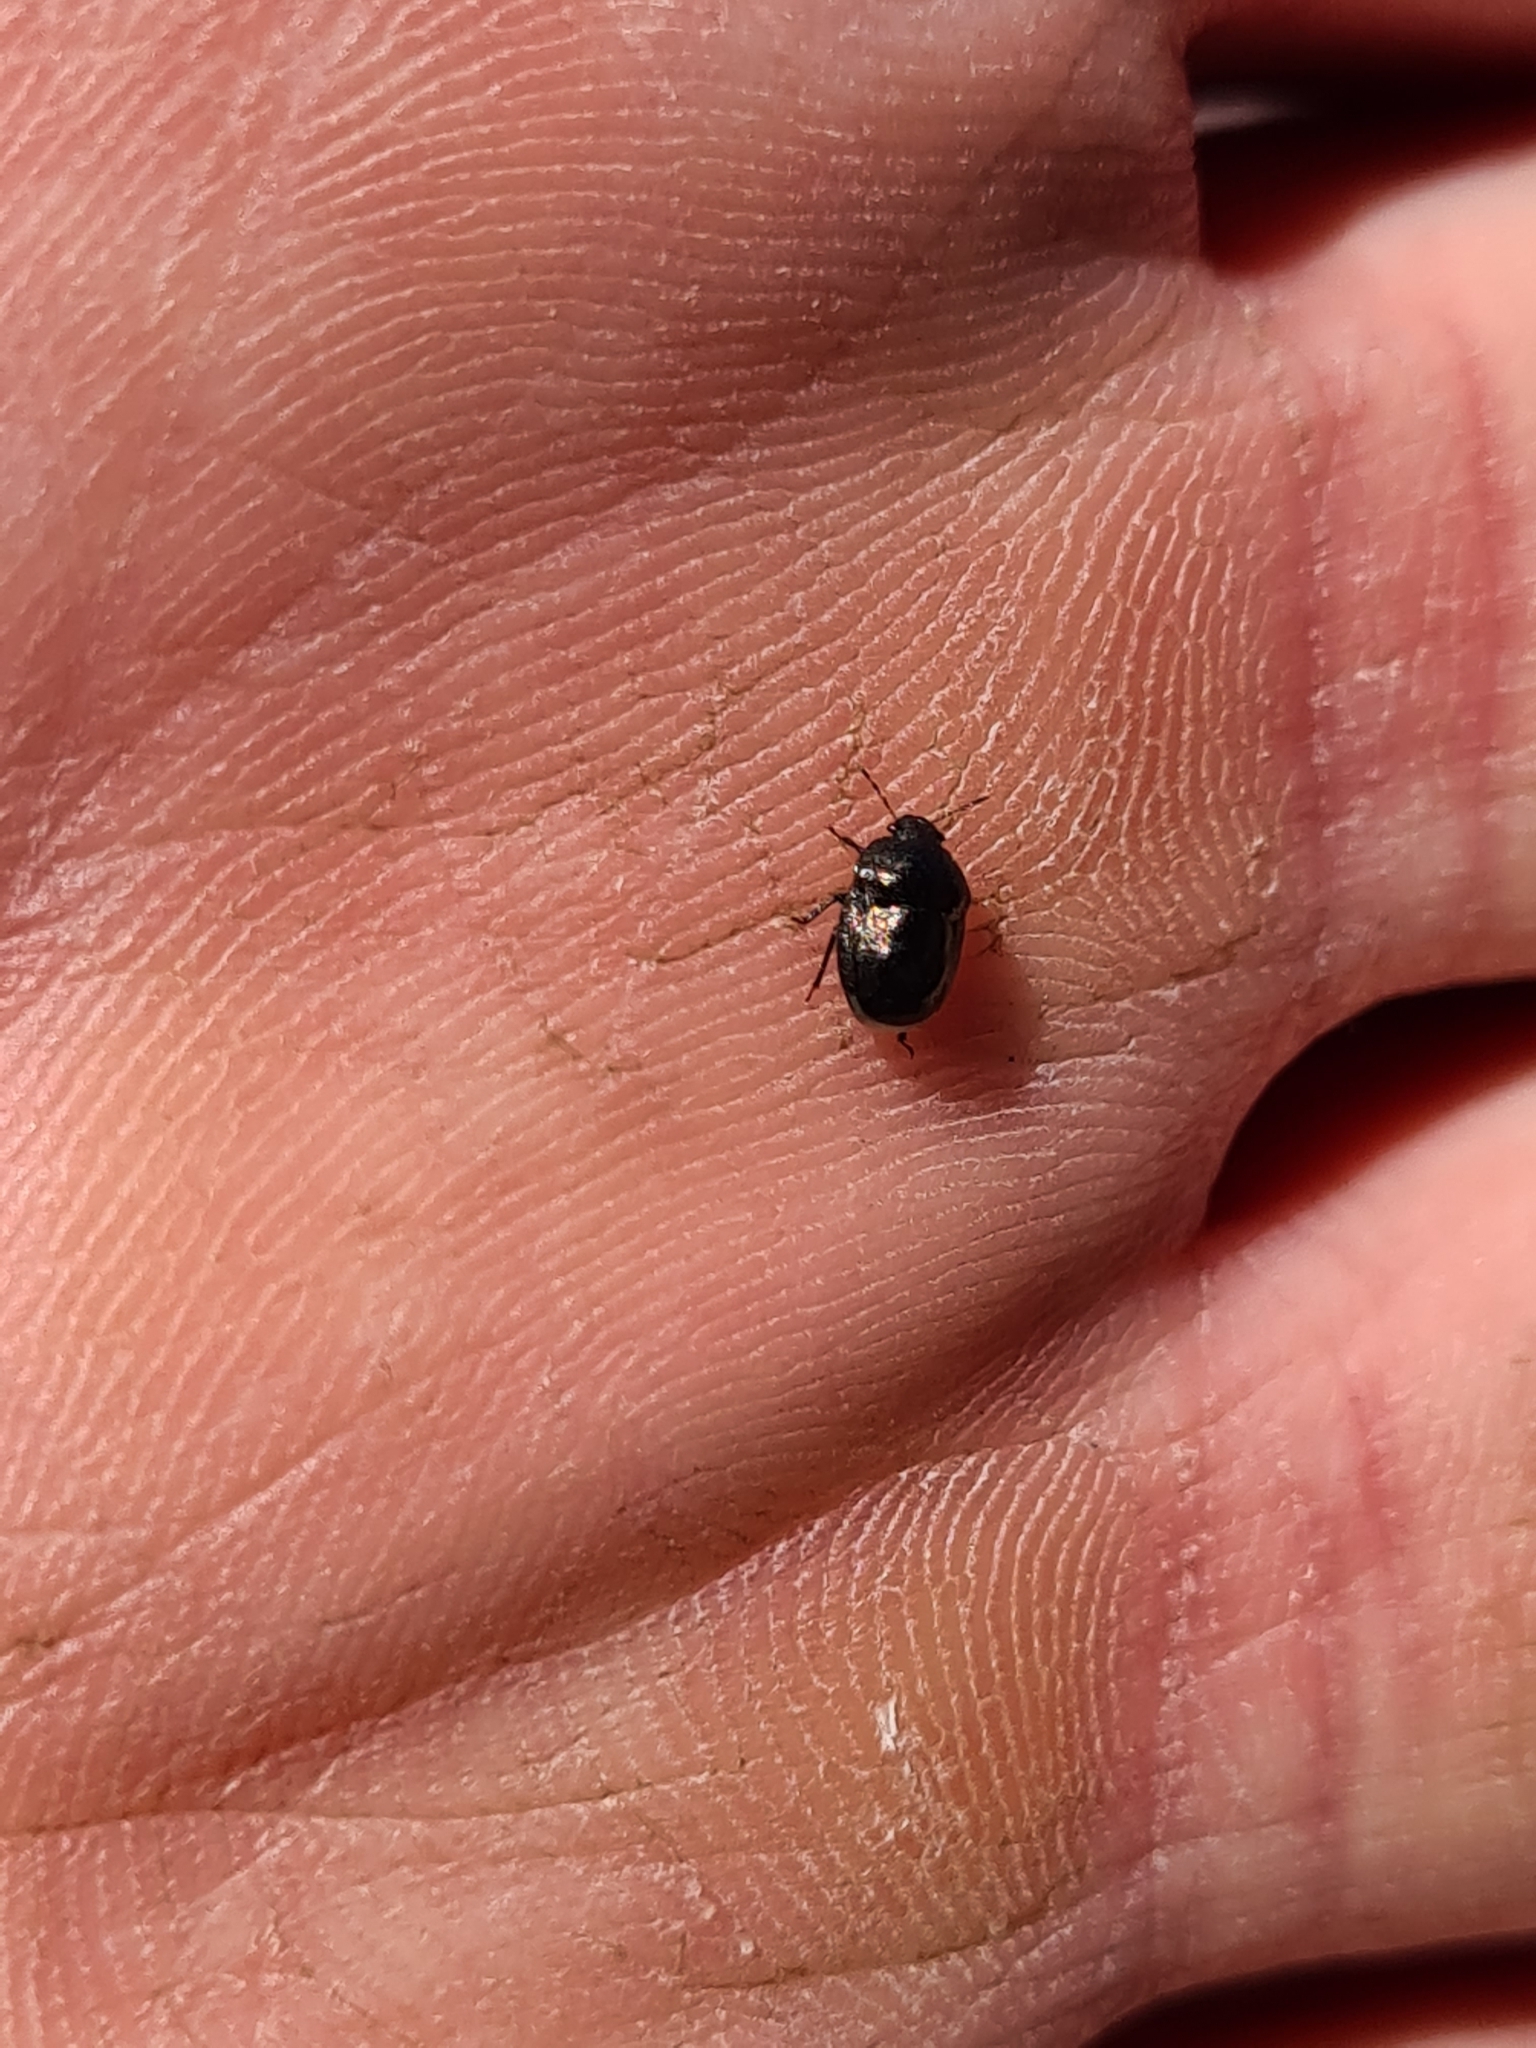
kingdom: Animalia
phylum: Arthropoda
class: Insecta
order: Hemiptera
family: Thyreocoridae
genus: Thyreocoris
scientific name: Thyreocoris scarabaeoides
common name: Negro bug
